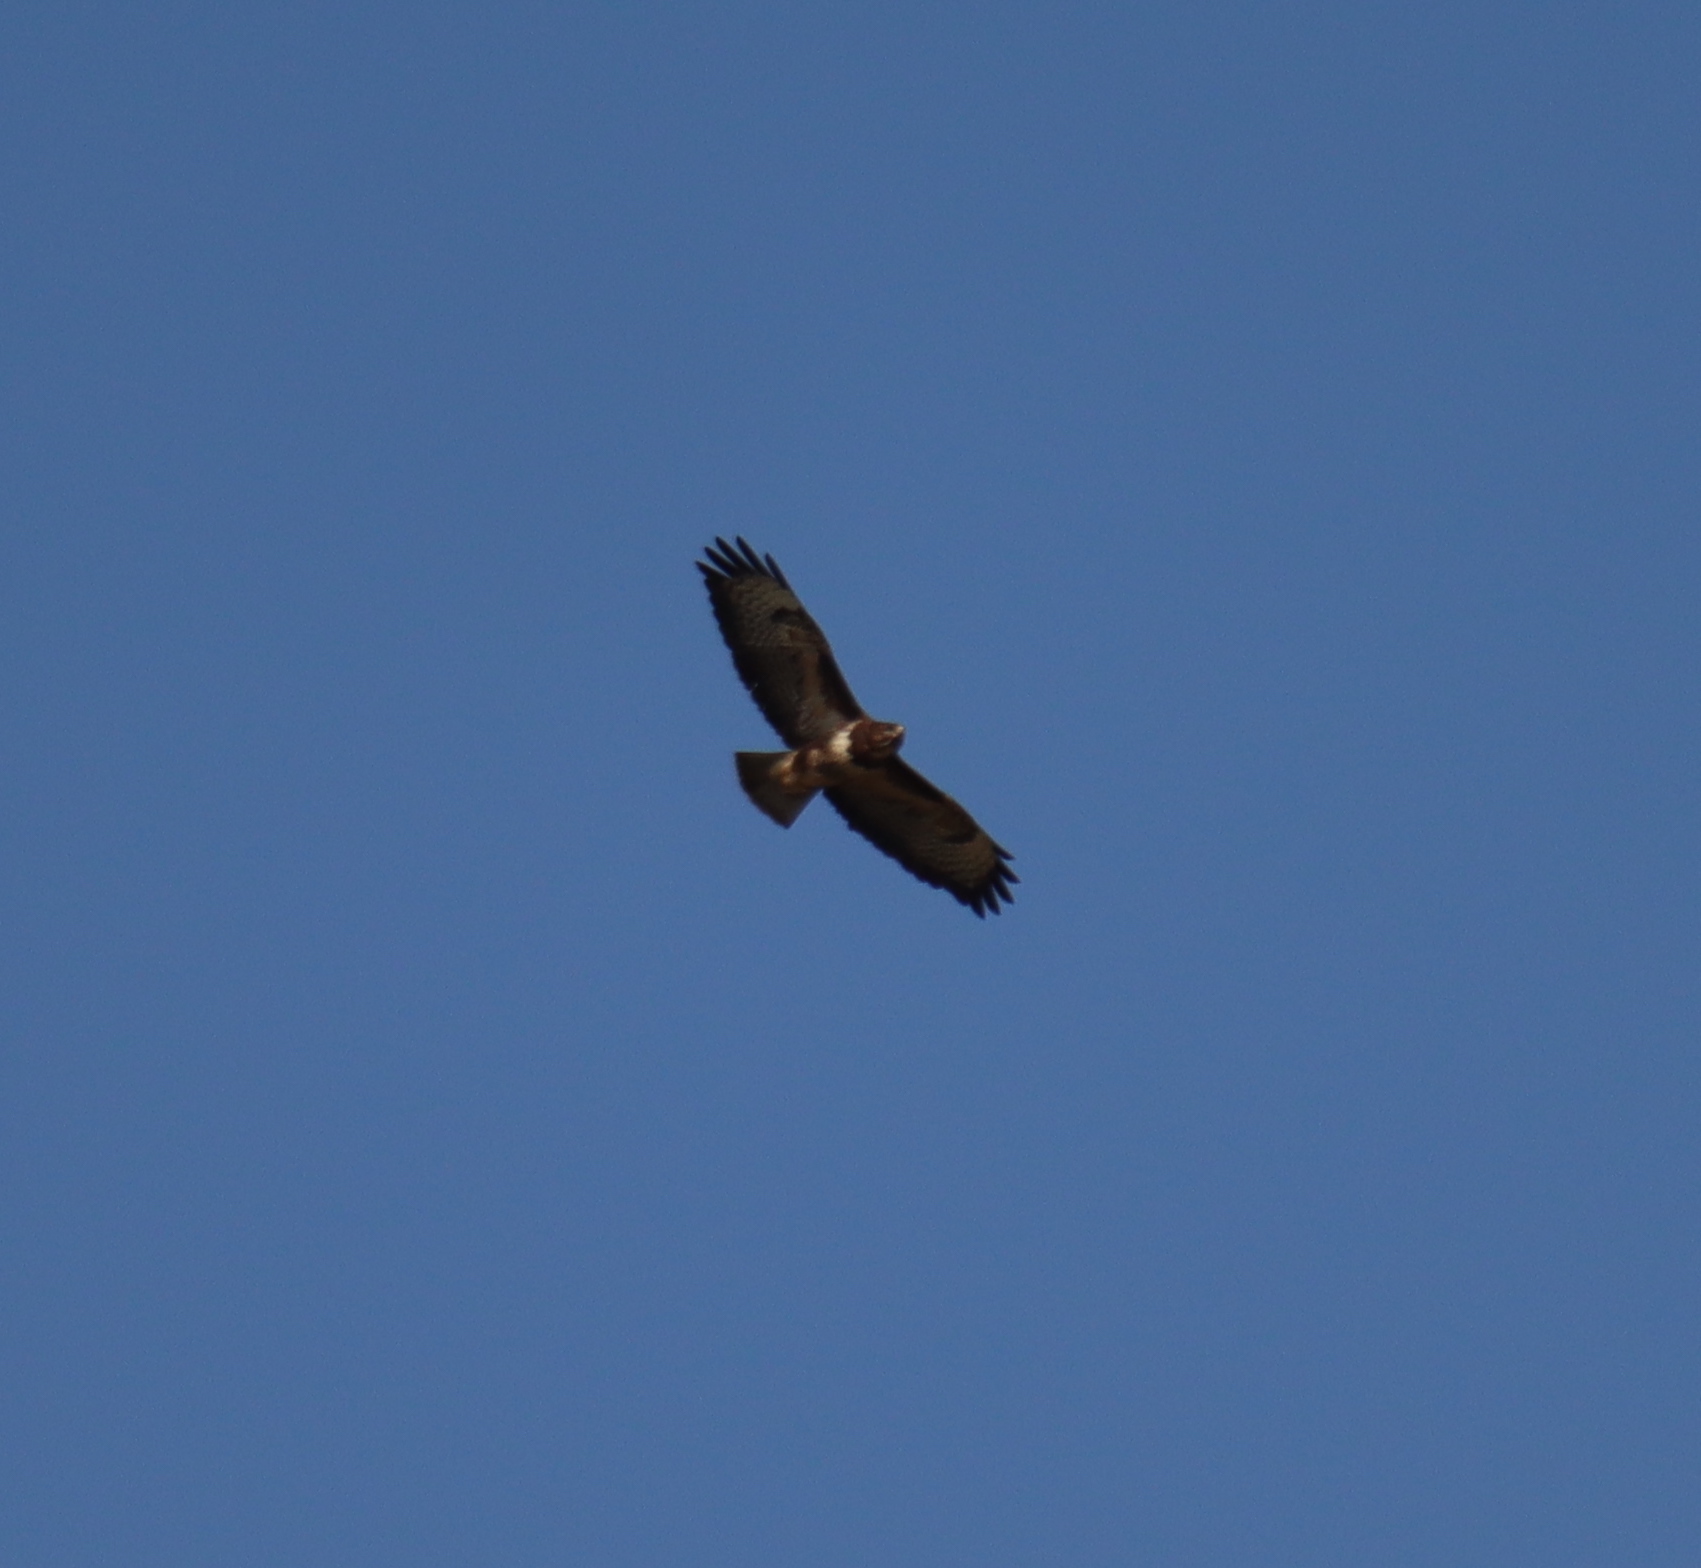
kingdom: Animalia
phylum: Chordata
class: Aves
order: Accipitriformes
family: Accipitridae
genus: Buteo
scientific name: Buteo buteo
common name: Common buzzard
